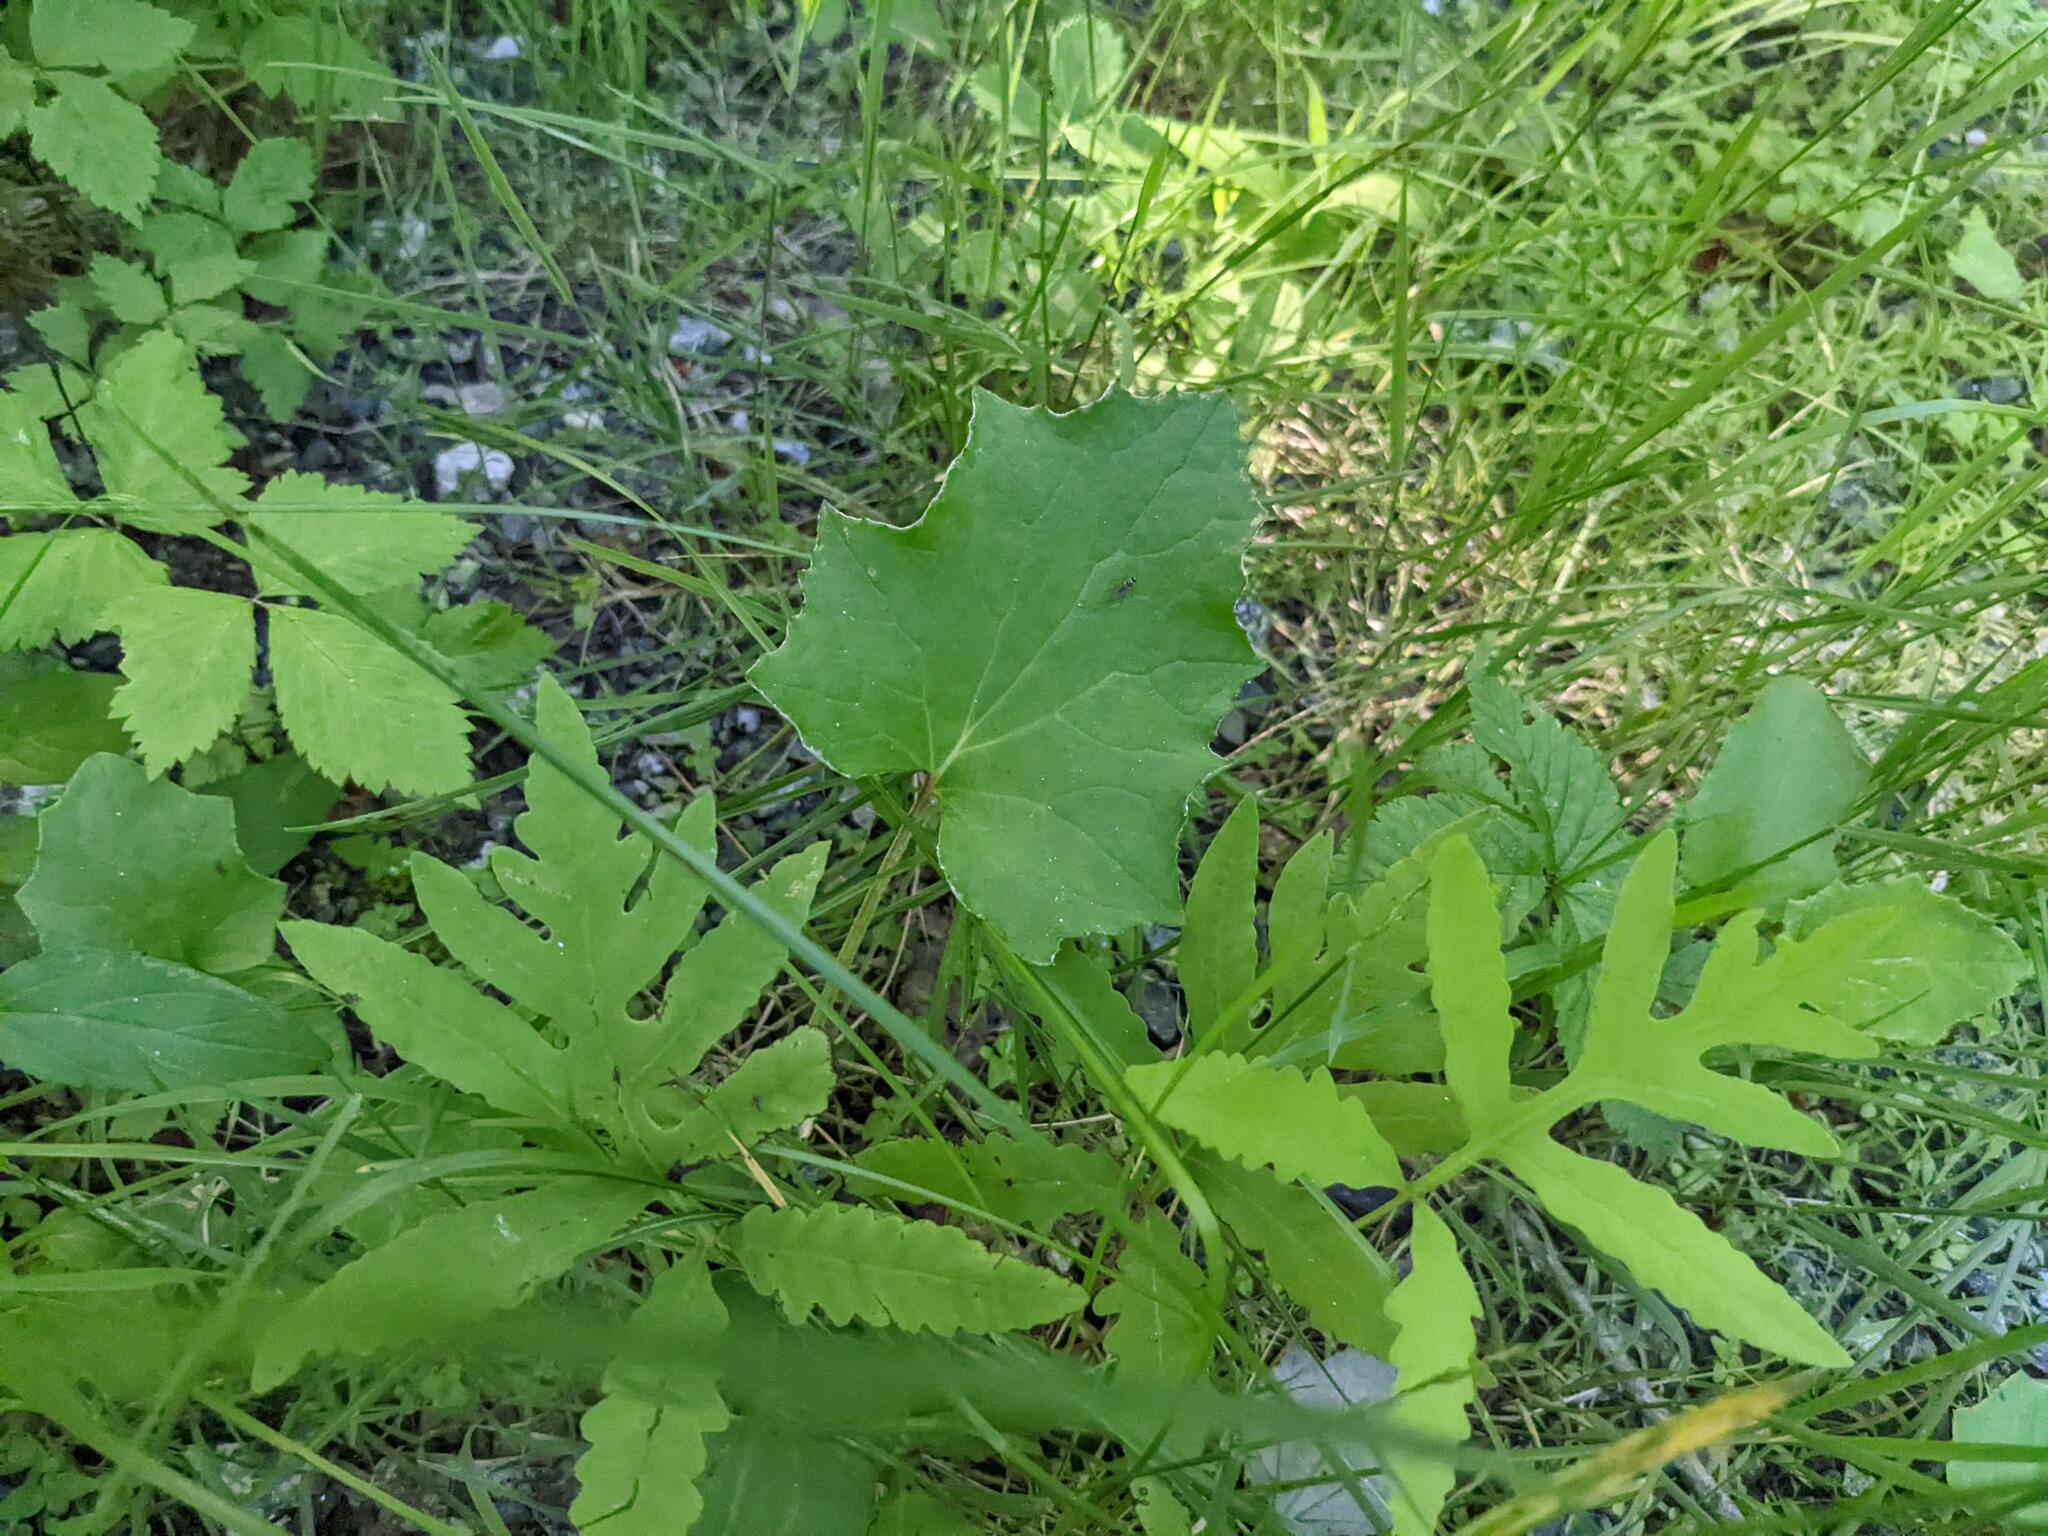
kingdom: Plantae
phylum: Tracheophyta
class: Polypodiopsida
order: Polypodiales
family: Onocleaceae
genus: Onoclea
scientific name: Onoclea sensibilis
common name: Sensitive fern
